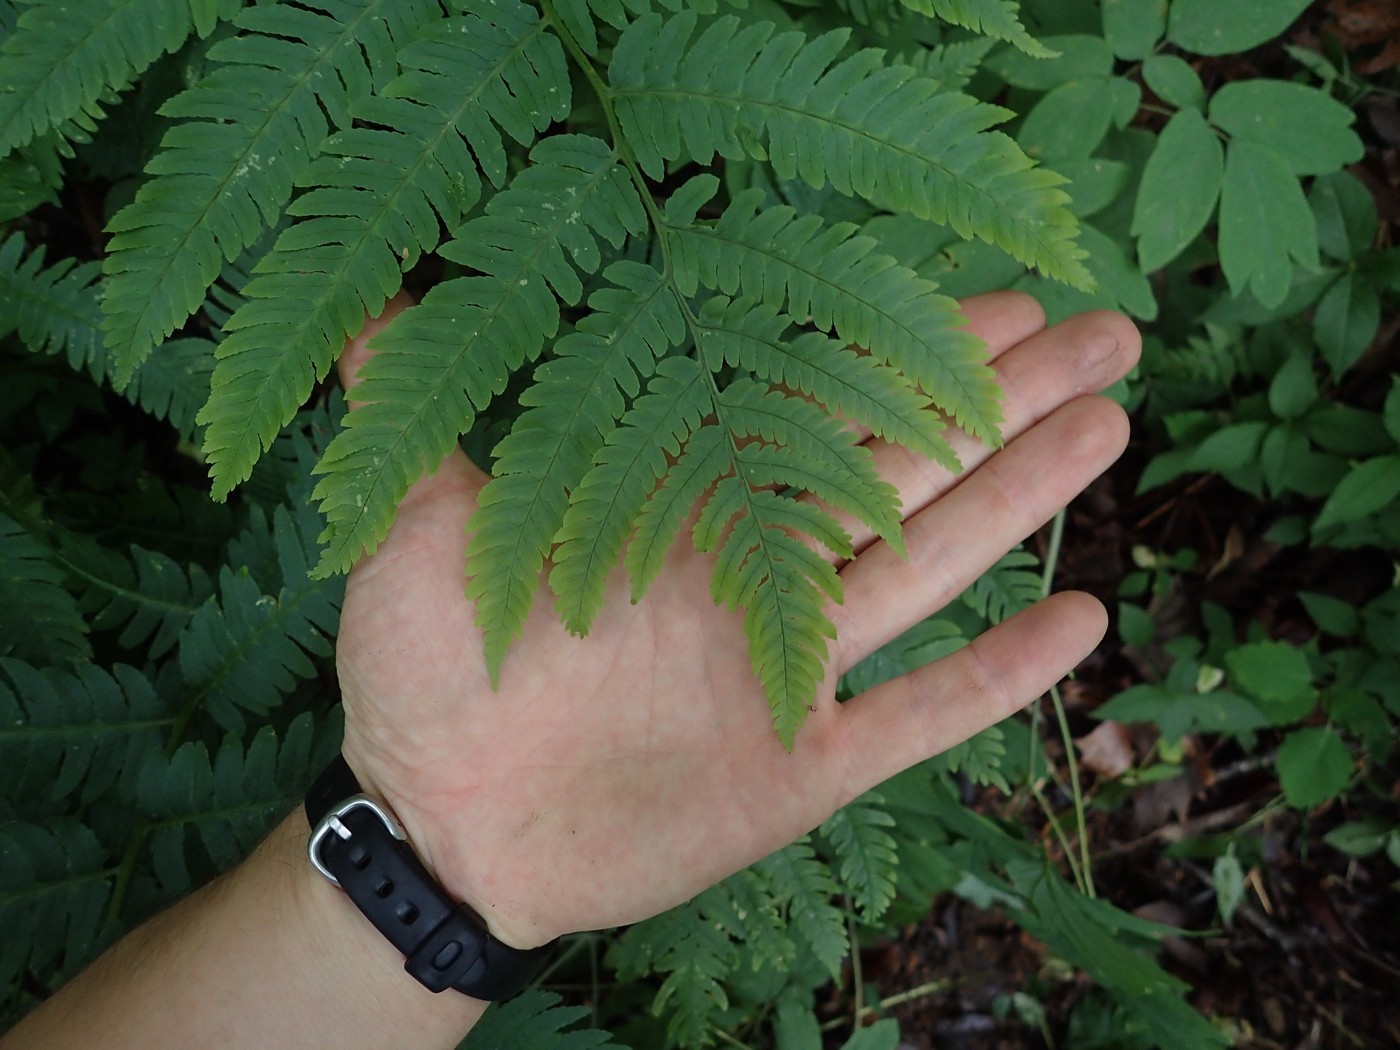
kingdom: Plantae
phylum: Tracheophyta
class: Polypodiopsida
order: Polypodiales
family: Dryopteridaceae
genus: Dryopteris
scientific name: Dryopteris goldieana
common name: Goldie's fern
